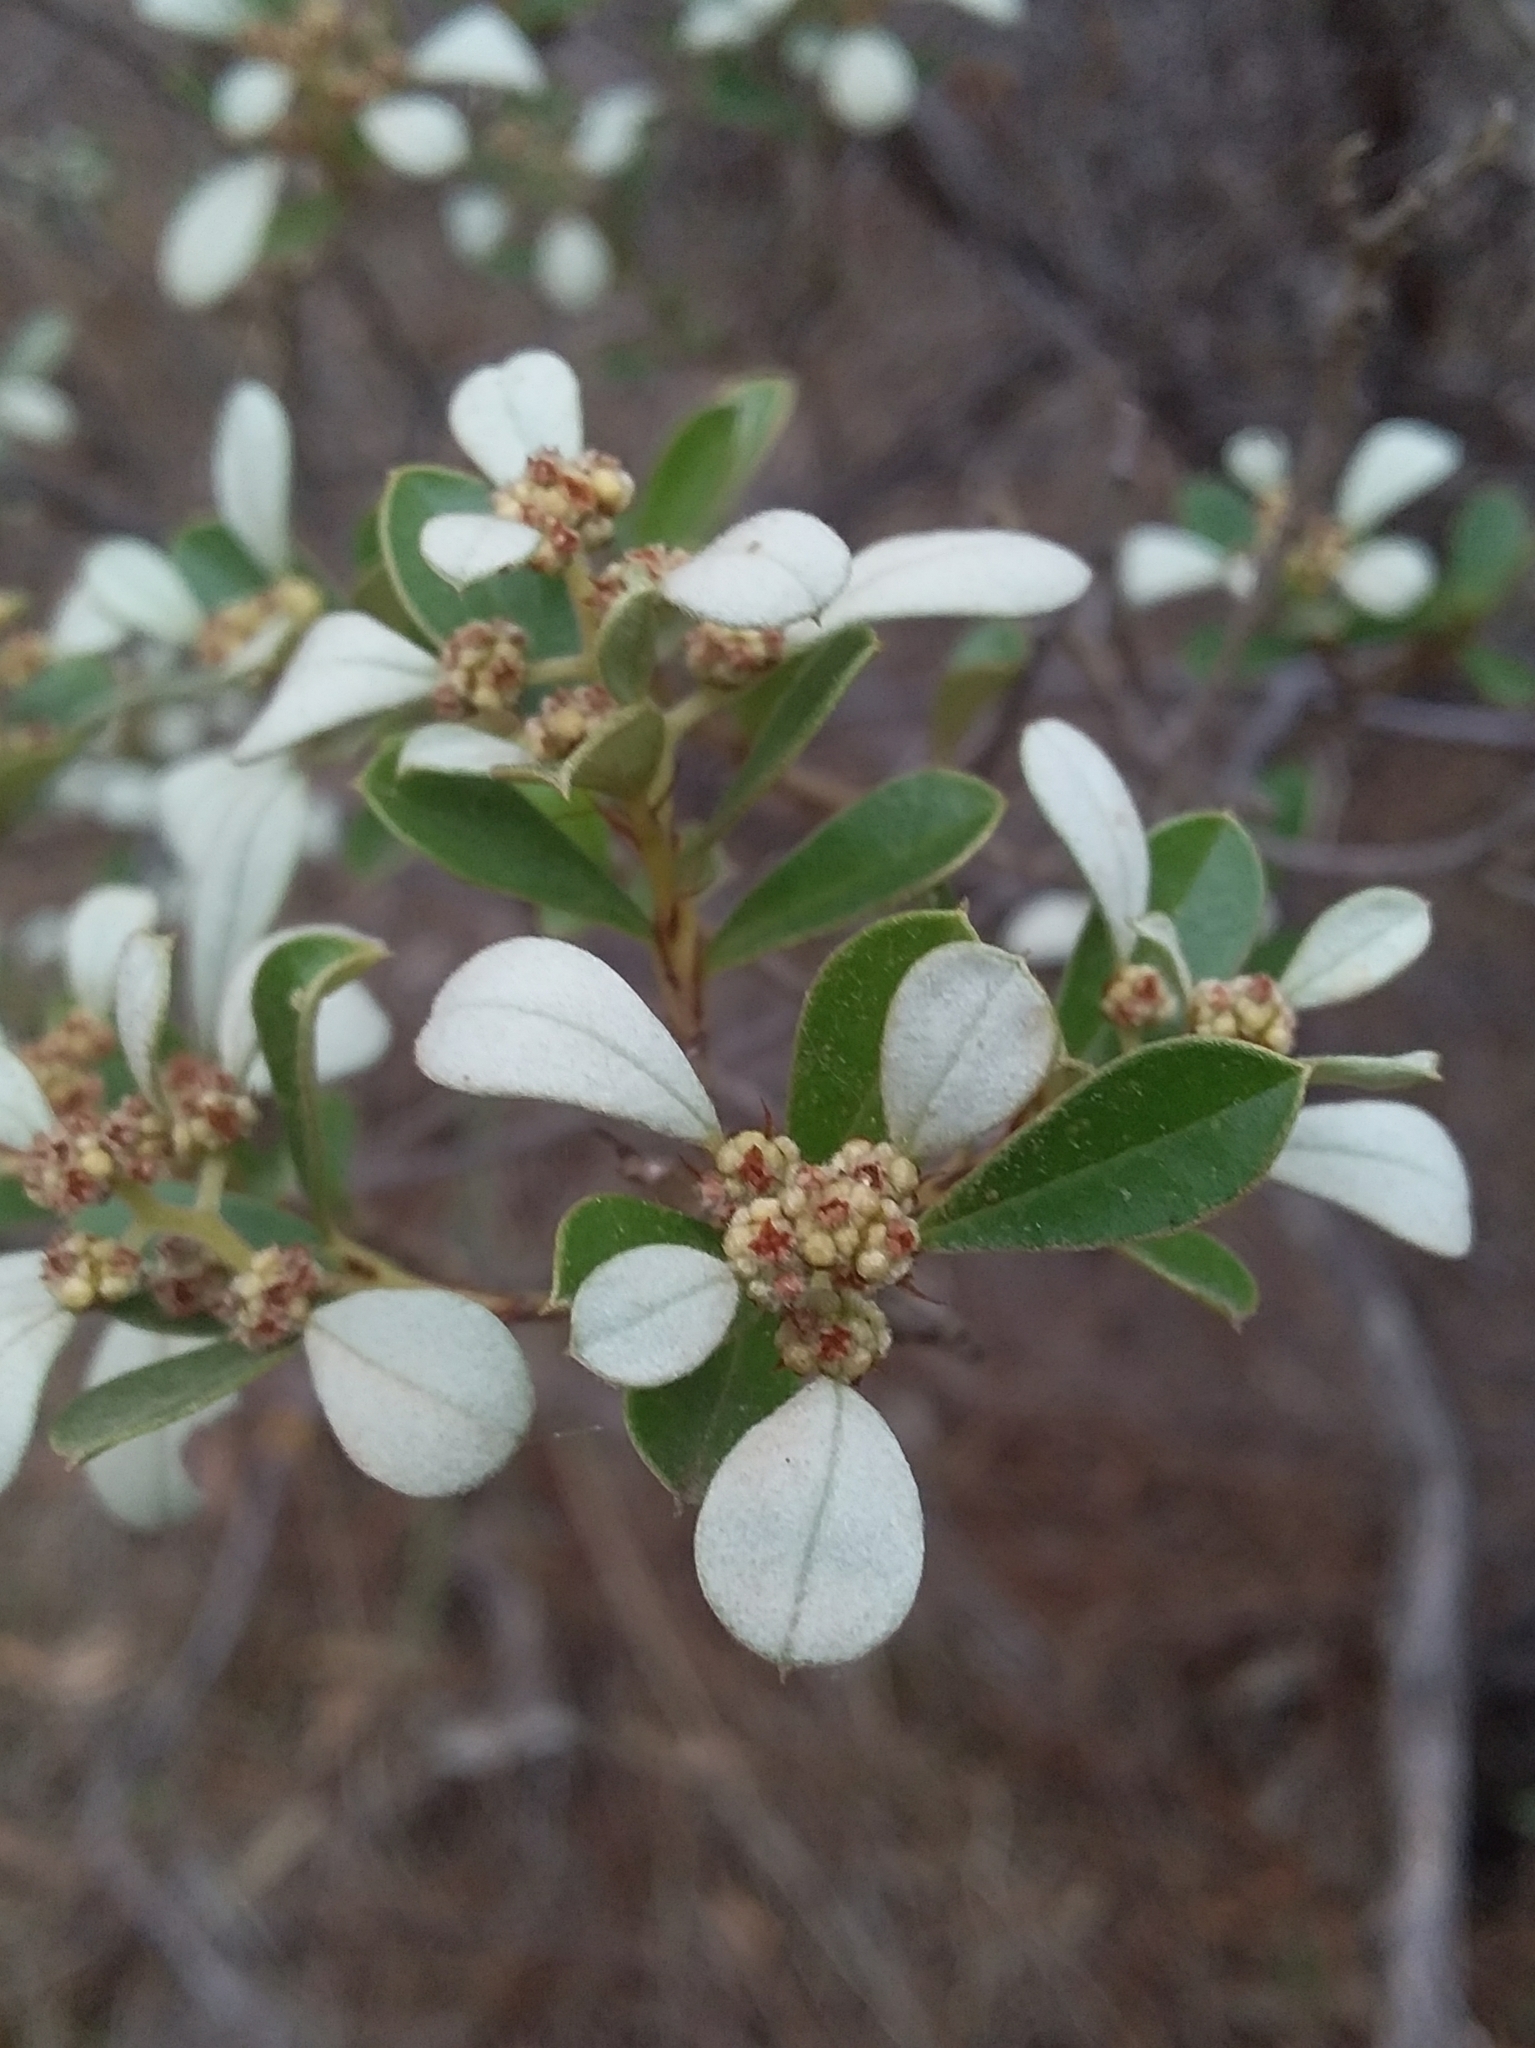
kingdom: Plantae
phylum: Tracheophyta
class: Magnoliopsida
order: Rosales
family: Rhamnaceae
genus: Spyridium
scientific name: Spyridium daphnoides
